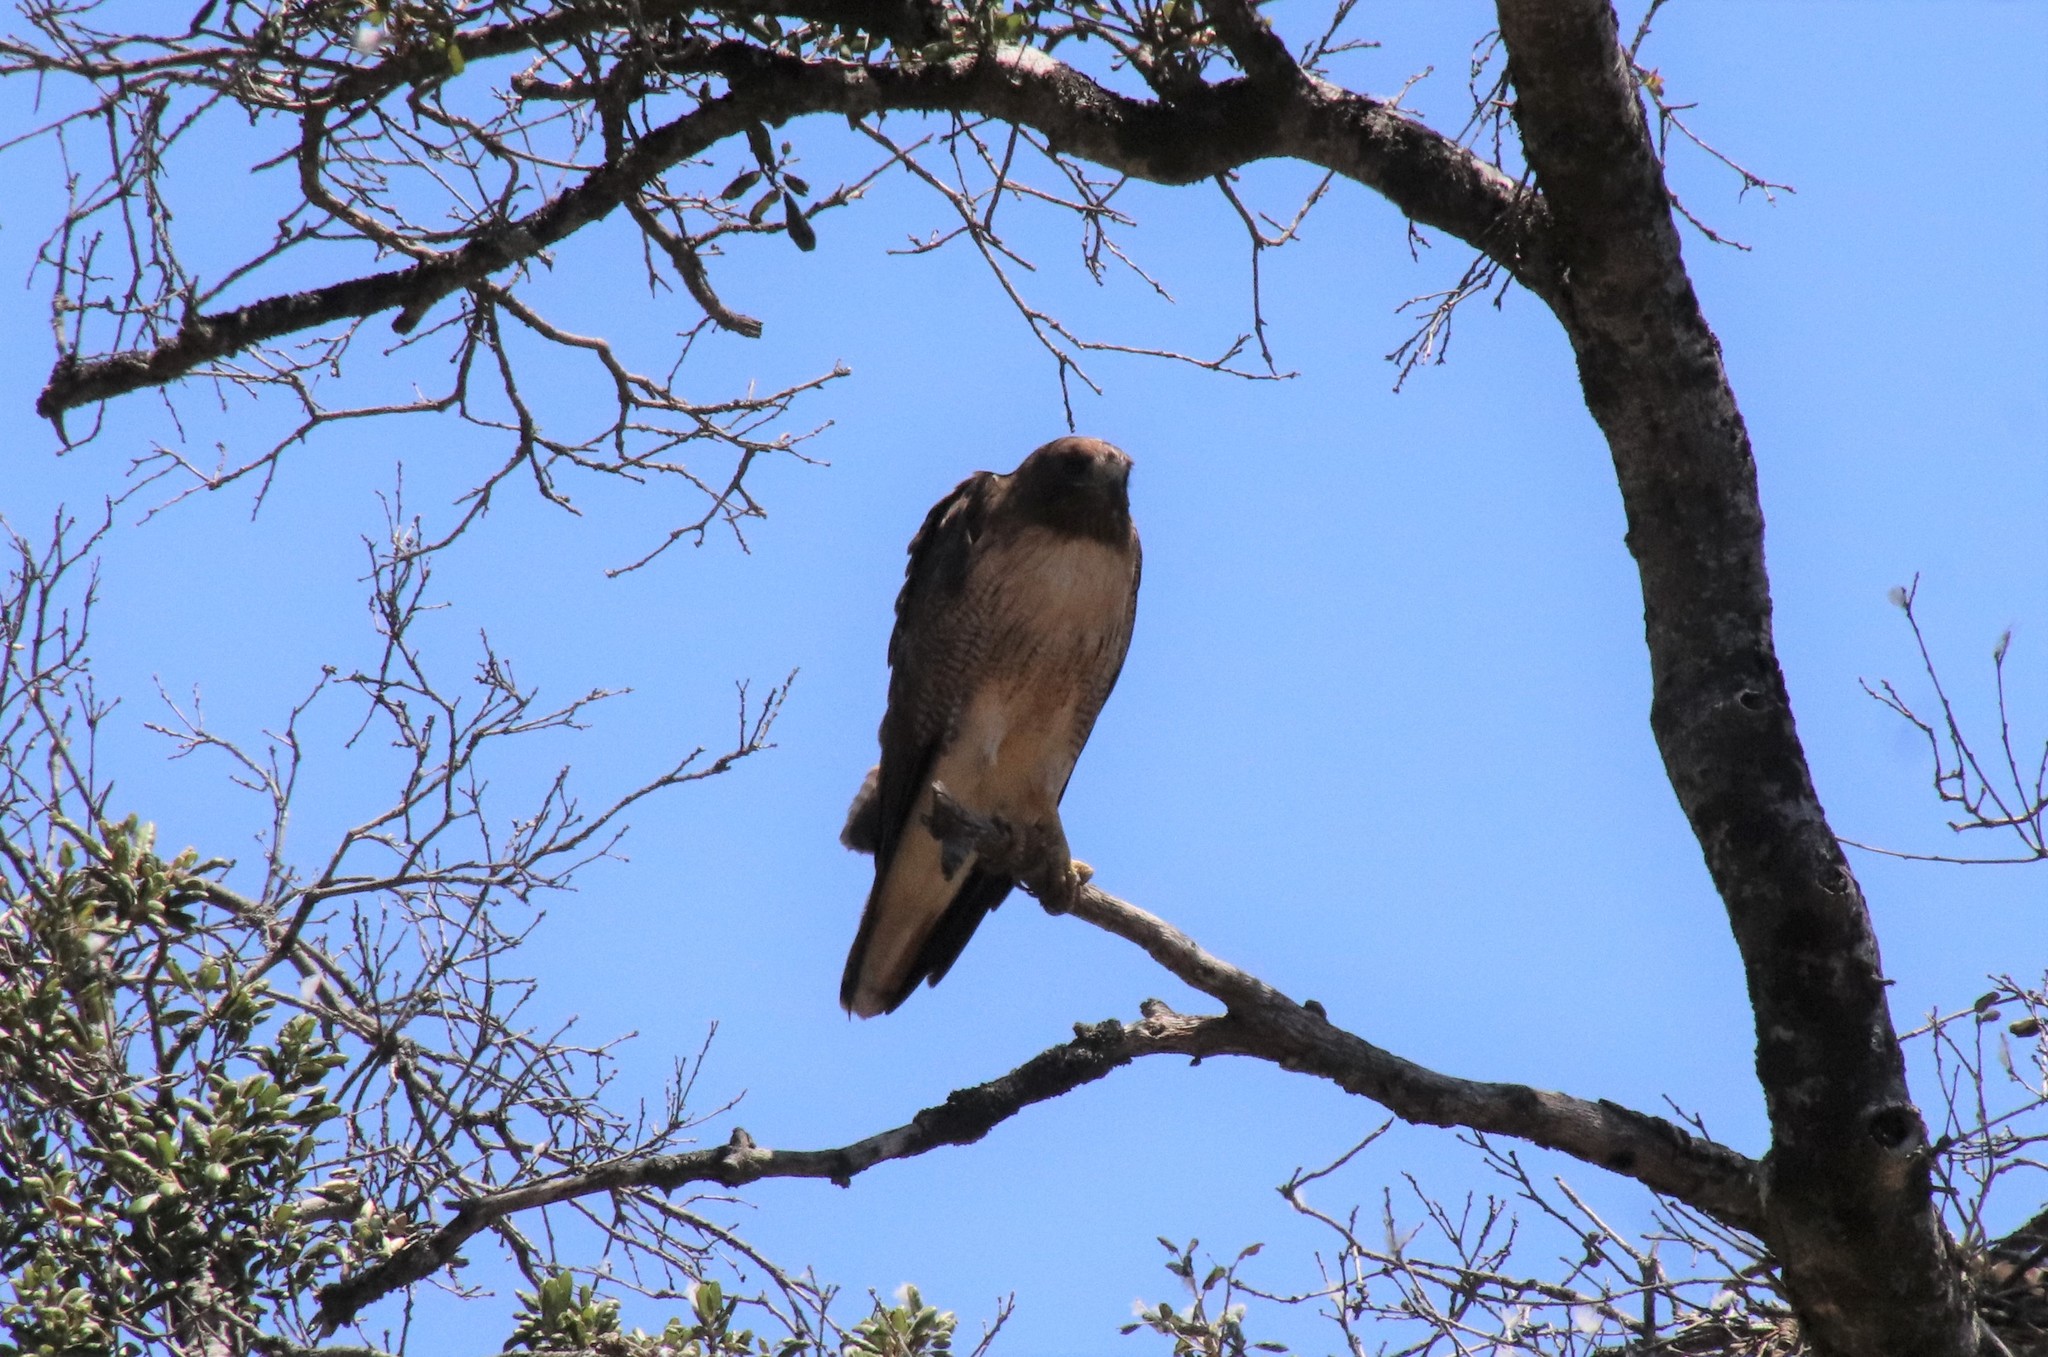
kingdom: Animalia
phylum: Chordata
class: Aves
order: Accipitriformes
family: Accipitridae
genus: Buteo
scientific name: Buteo jamaicensis
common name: Red-tailed hawk
